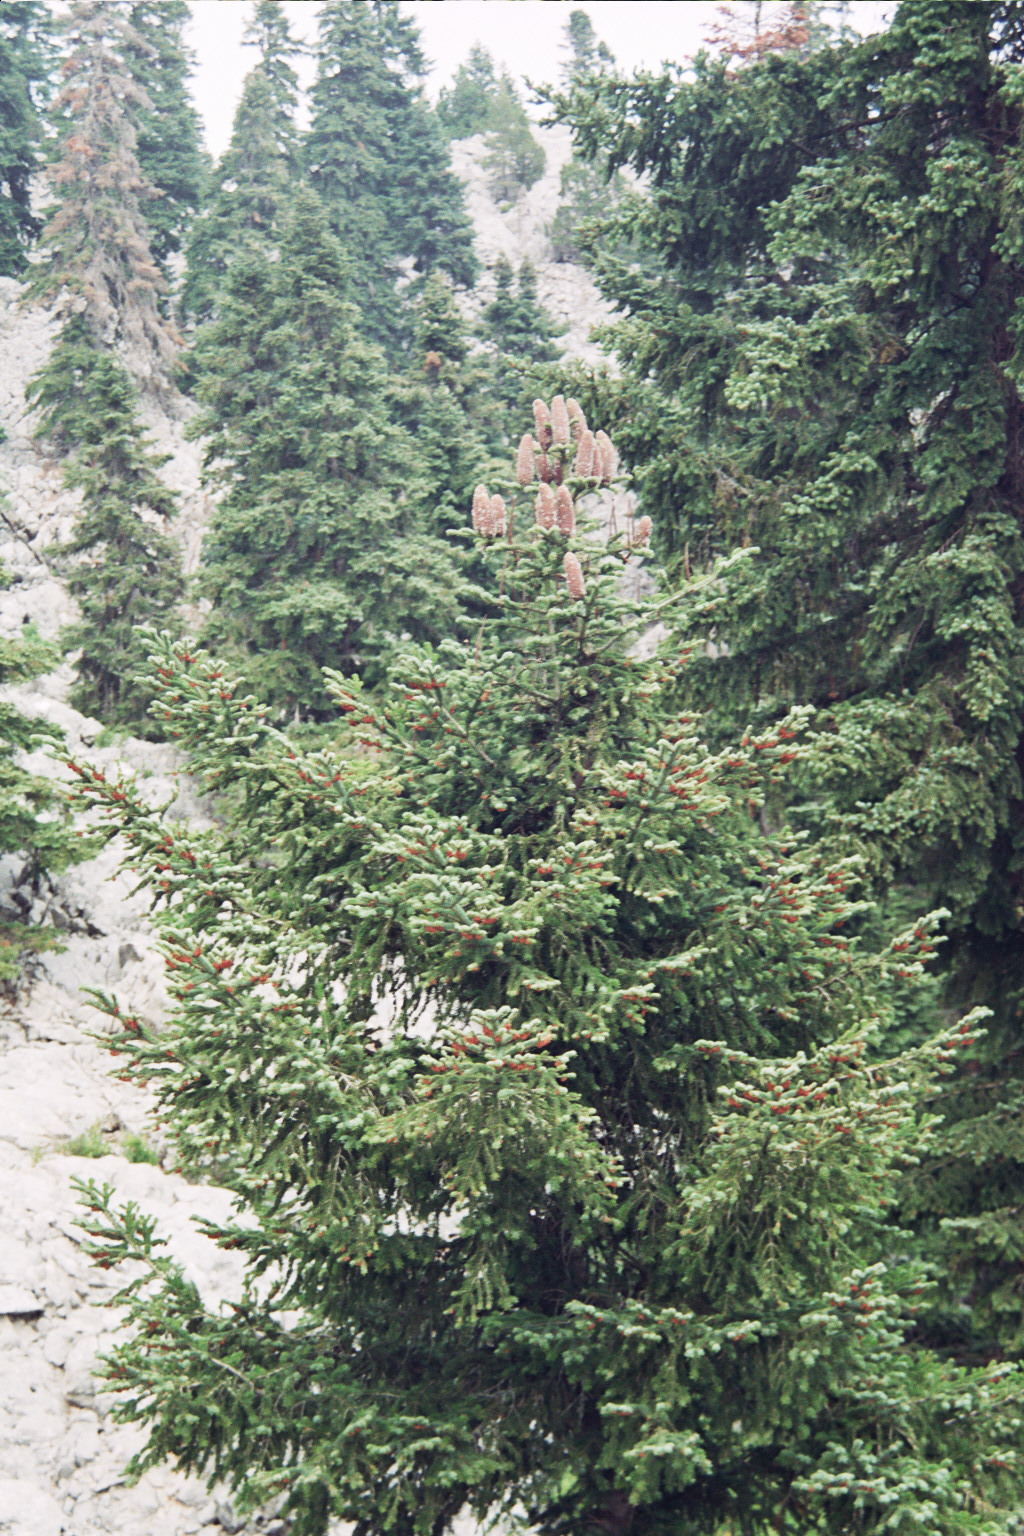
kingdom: Plantae
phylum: Tracheophyta
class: Pinopsida
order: Pinales
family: Pinaceae
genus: Abies
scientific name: Abies cilicica
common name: Cilician fir
